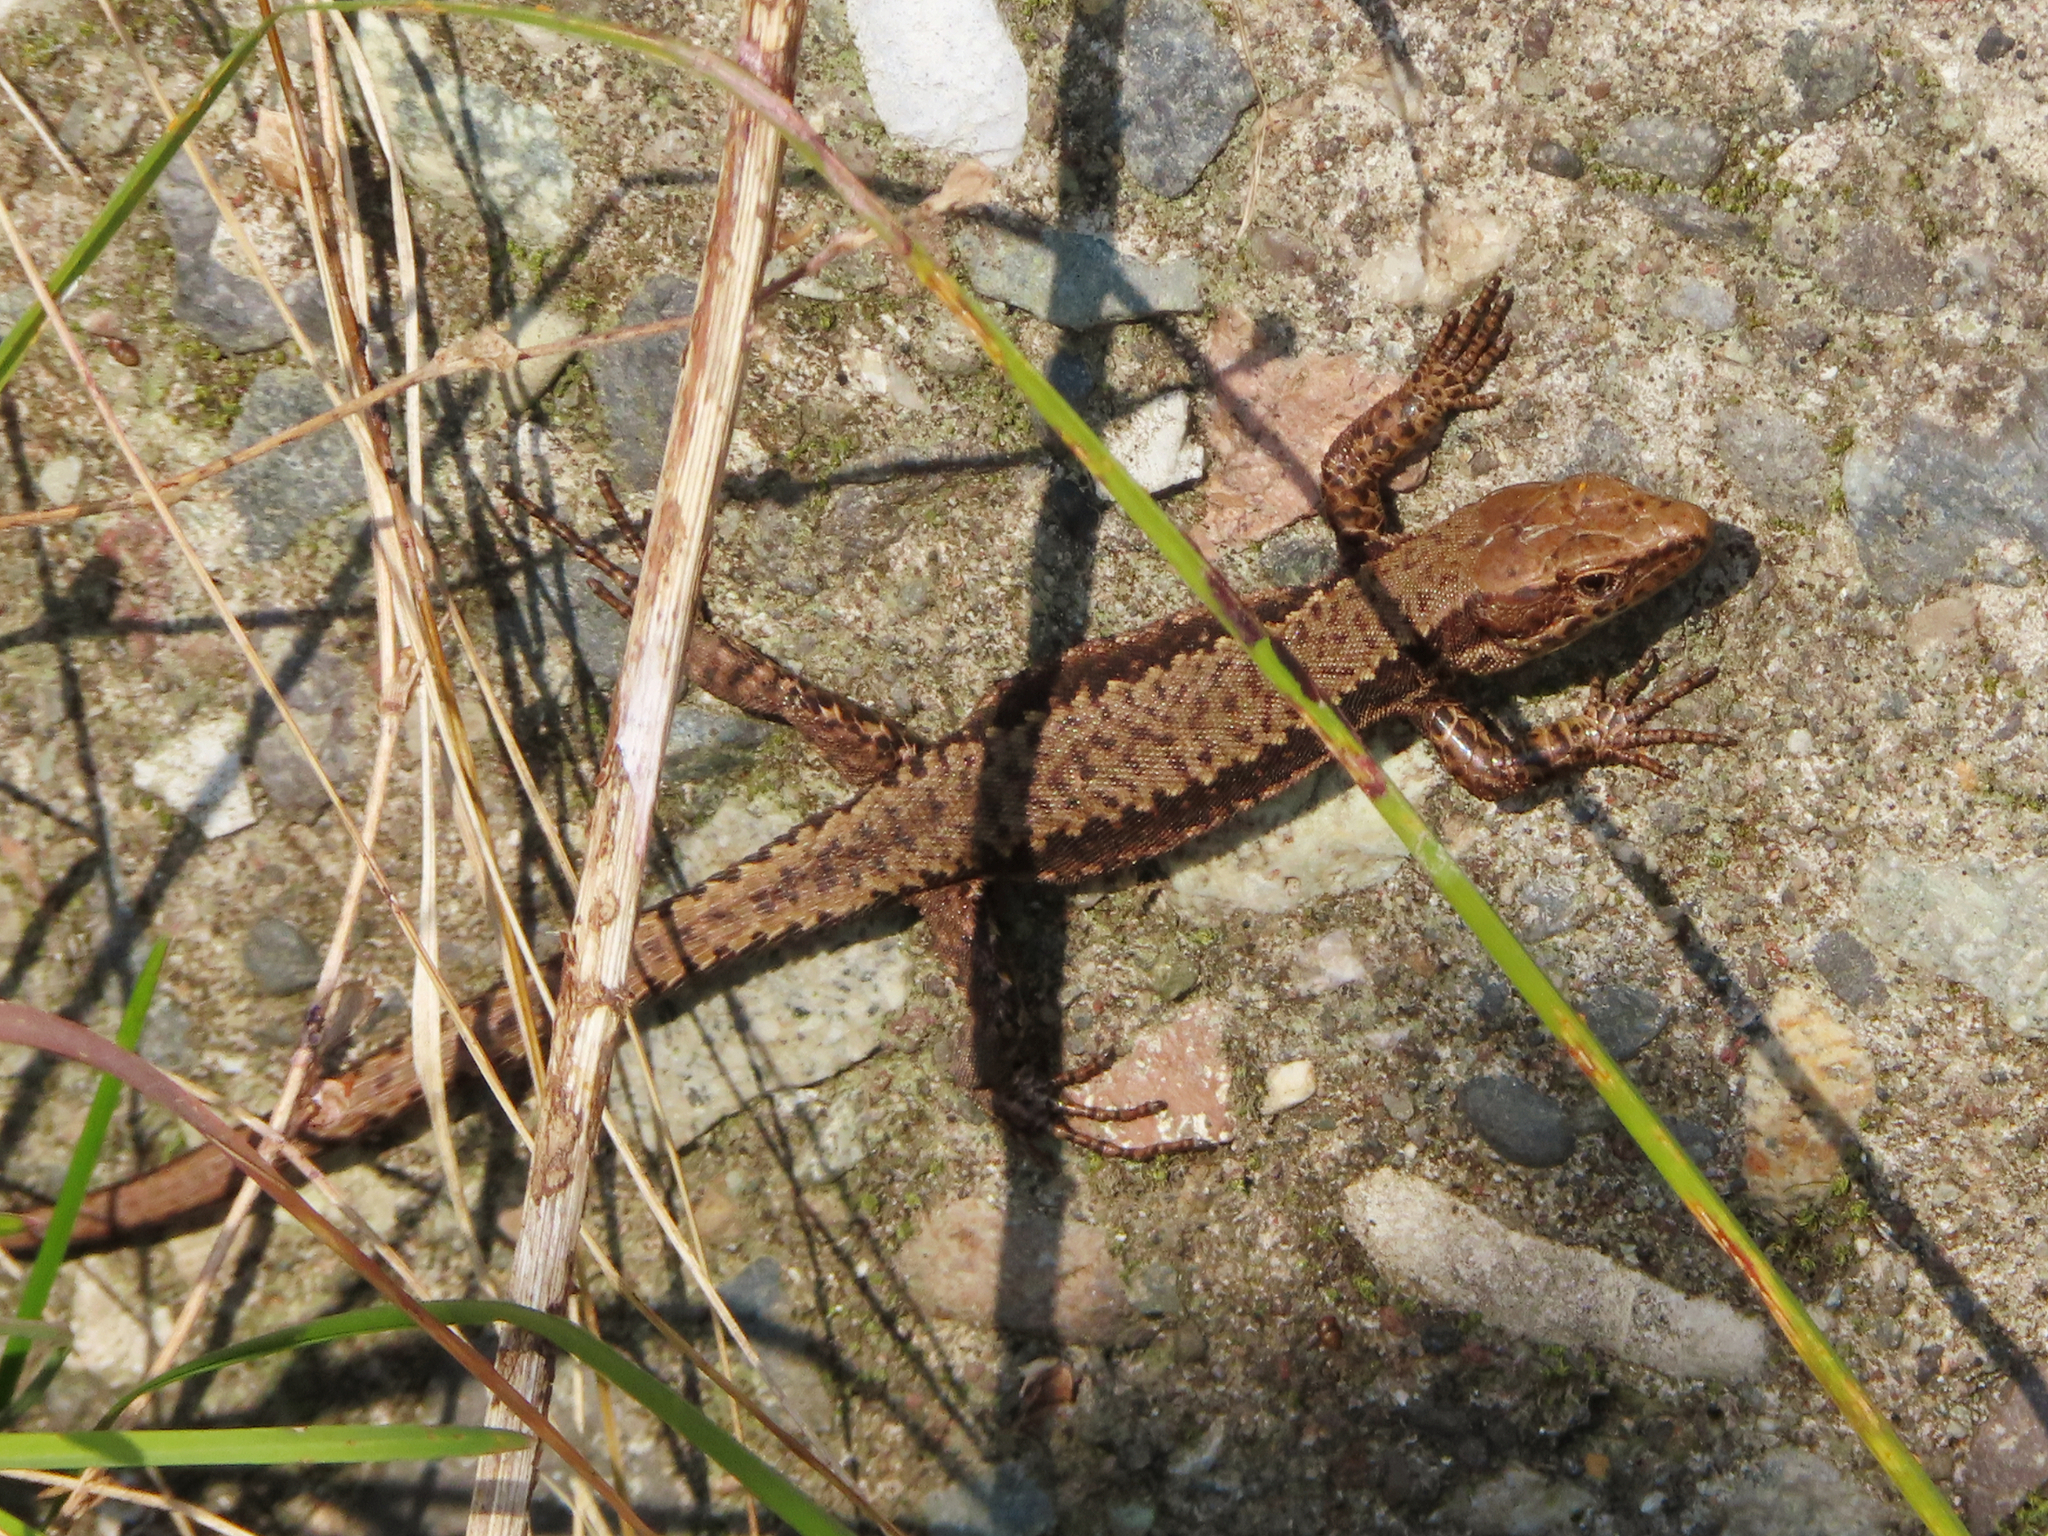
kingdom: Animalia
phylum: Chordata
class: Squamata
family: Lacertidae
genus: Darevskia
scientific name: Darevskia derjugini
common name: Derjugin's lizard
